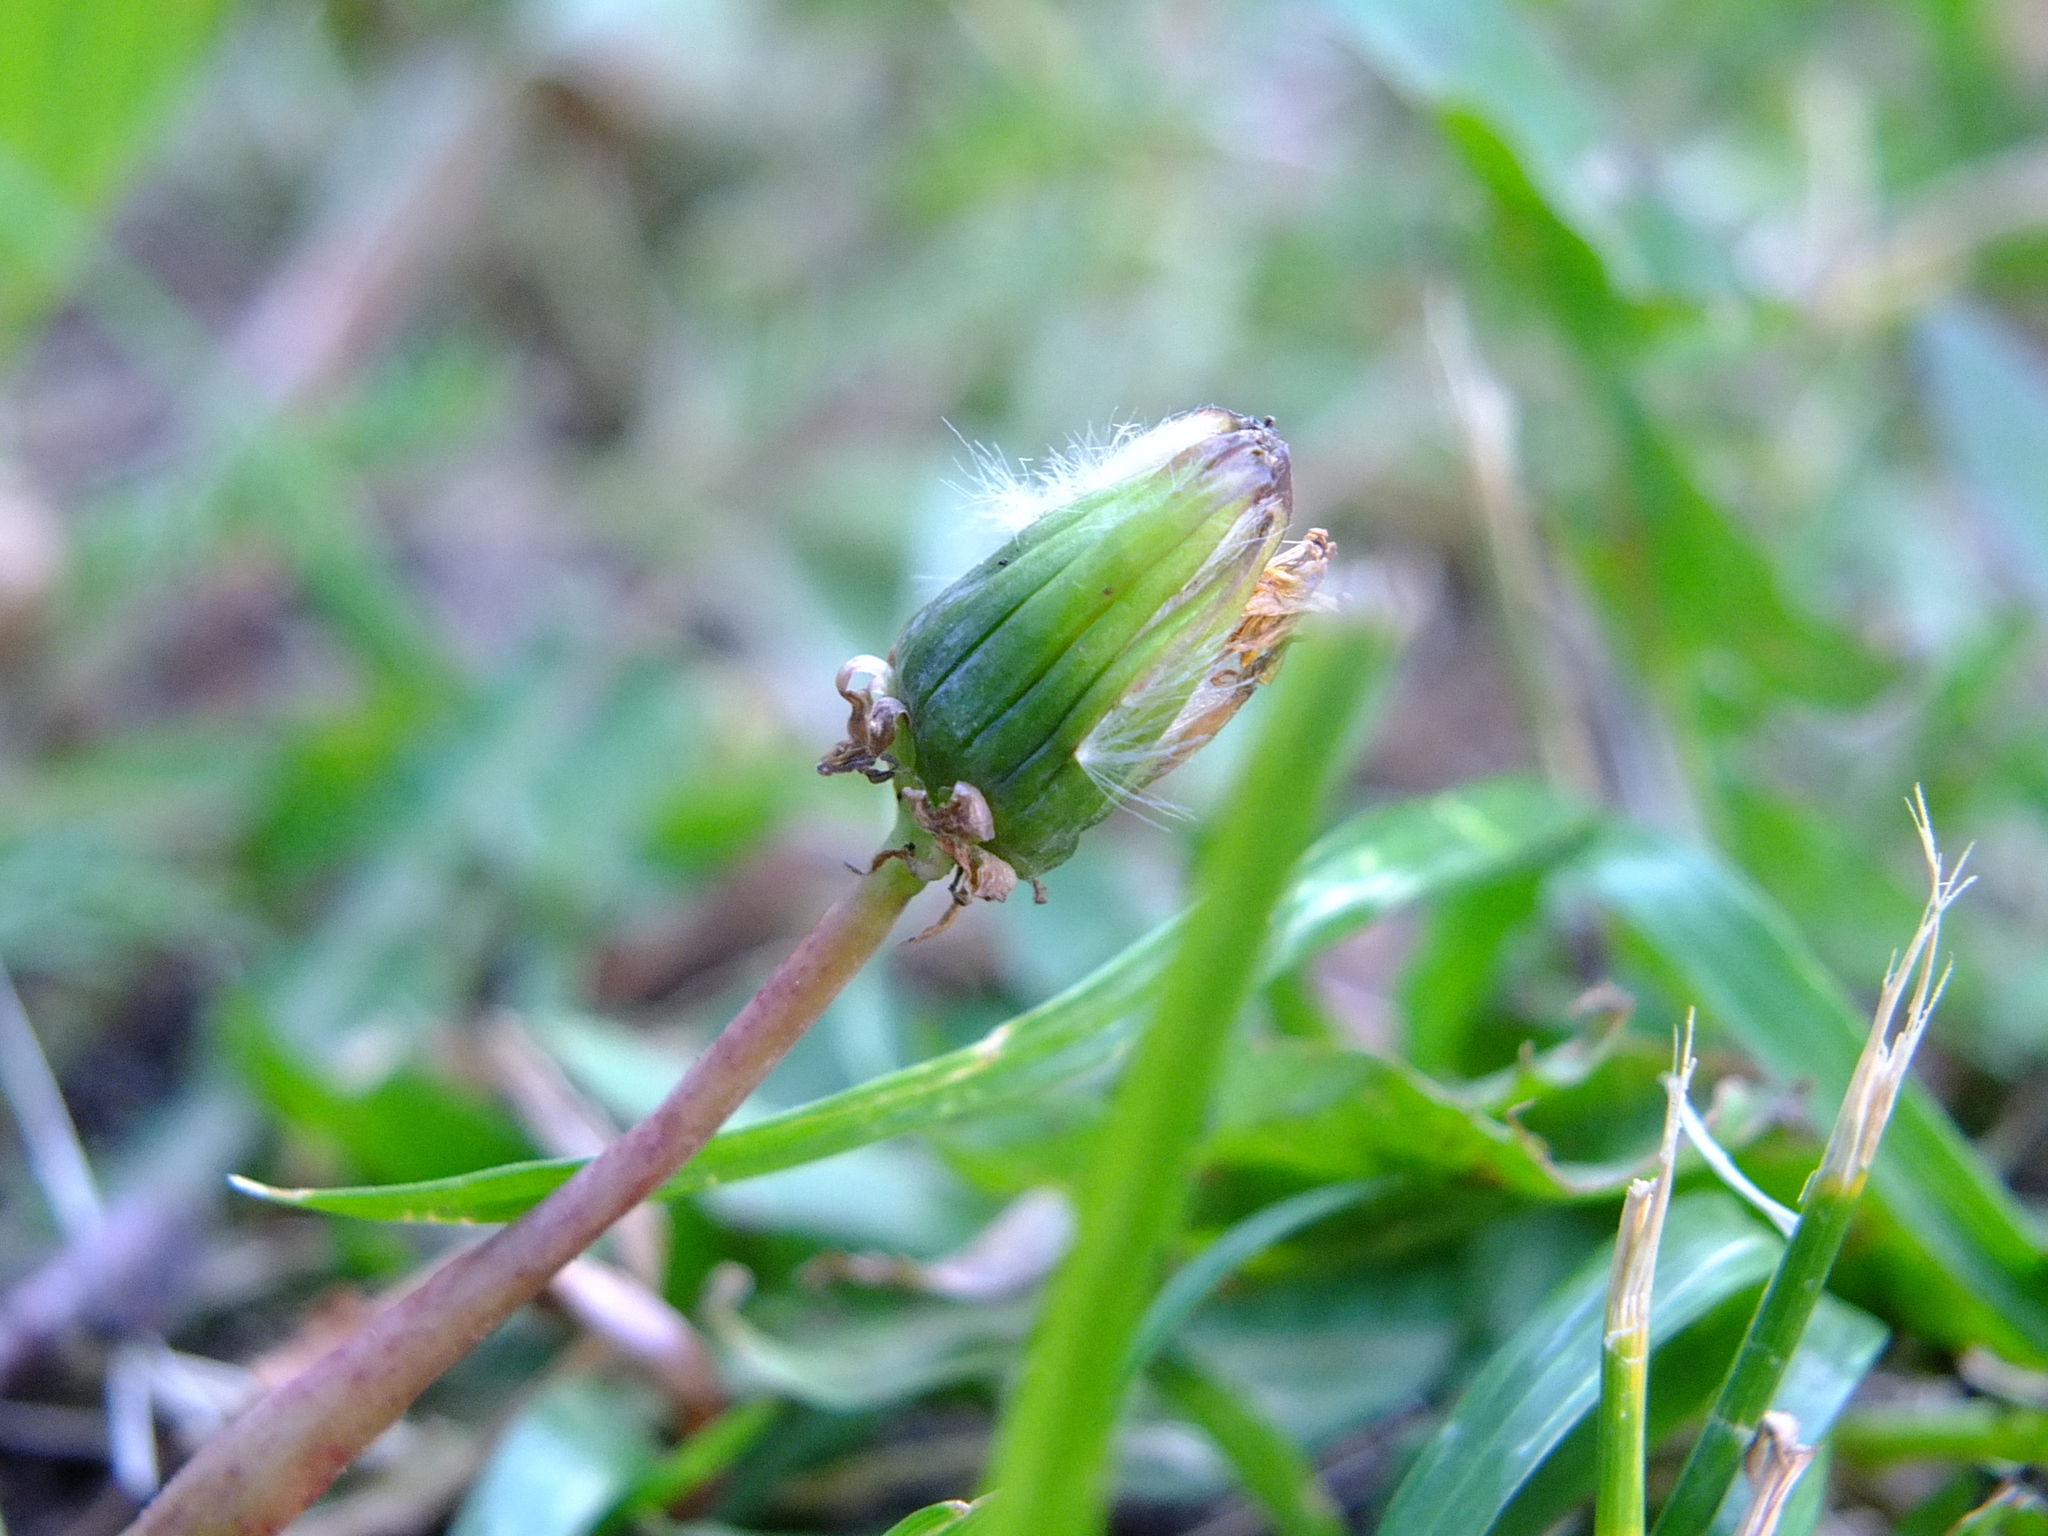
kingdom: Plantae
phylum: Tracheophyta
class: Magnoliopsida
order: Asterales
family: Asteraceae
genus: Taraxacum
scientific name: Taraxacum officinale
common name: Common dandelion
